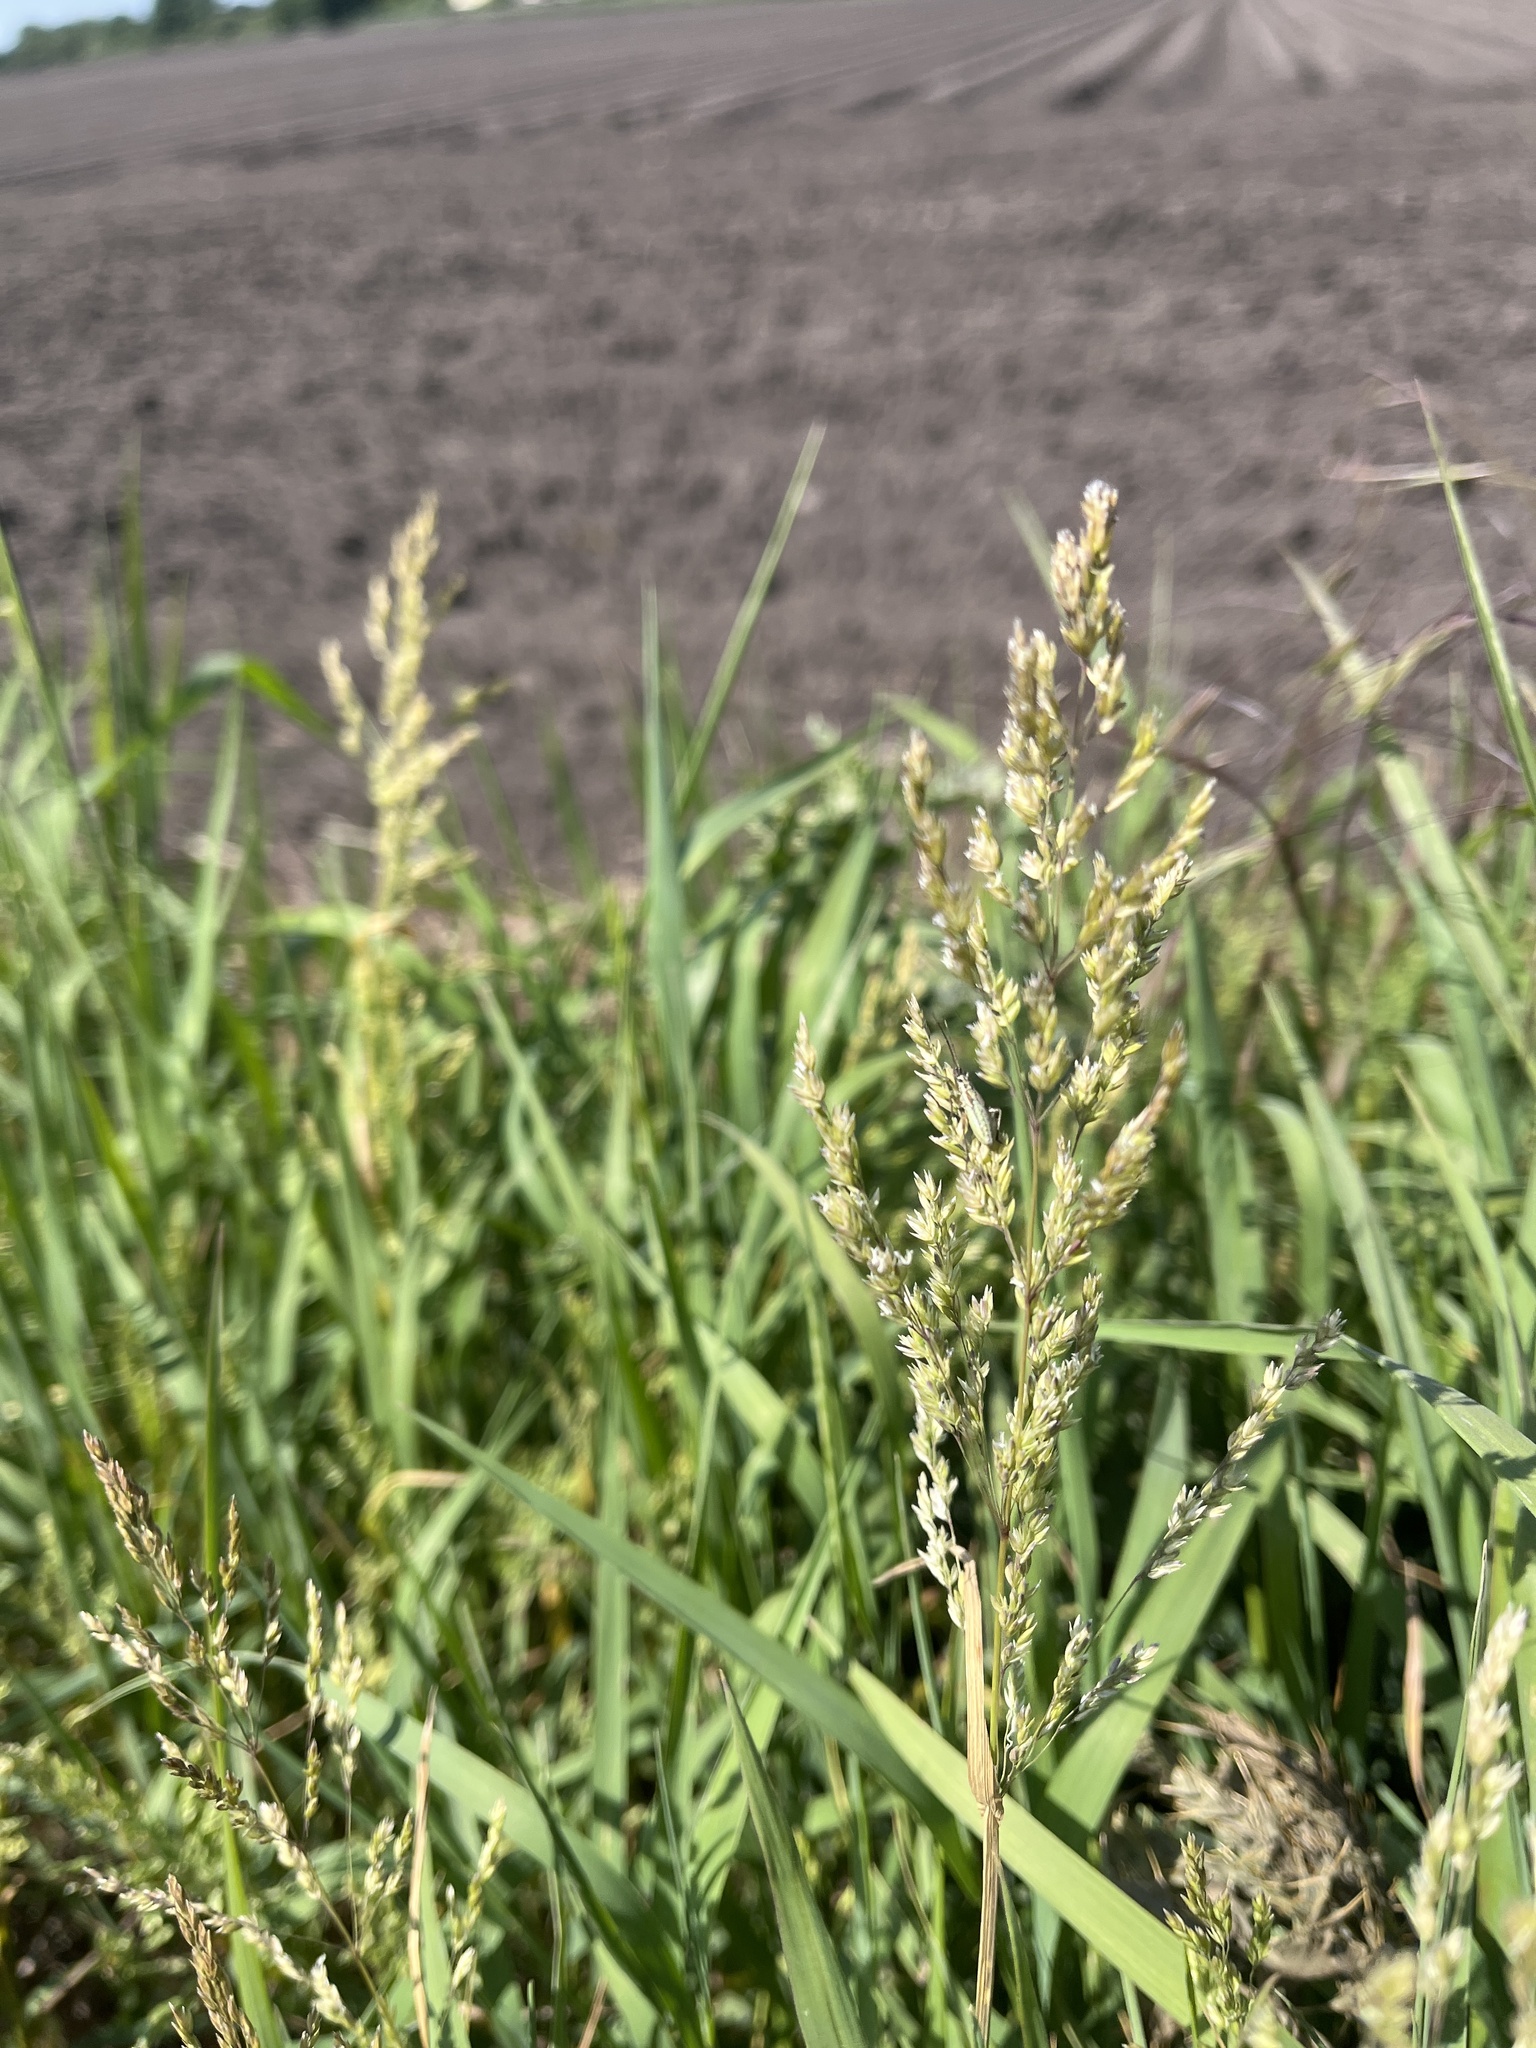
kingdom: Plantae
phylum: Tracheophyta
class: Liliopsida
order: Poales
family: Poaceae
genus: Polypogon
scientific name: Polypogon viridis
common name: Water bent
